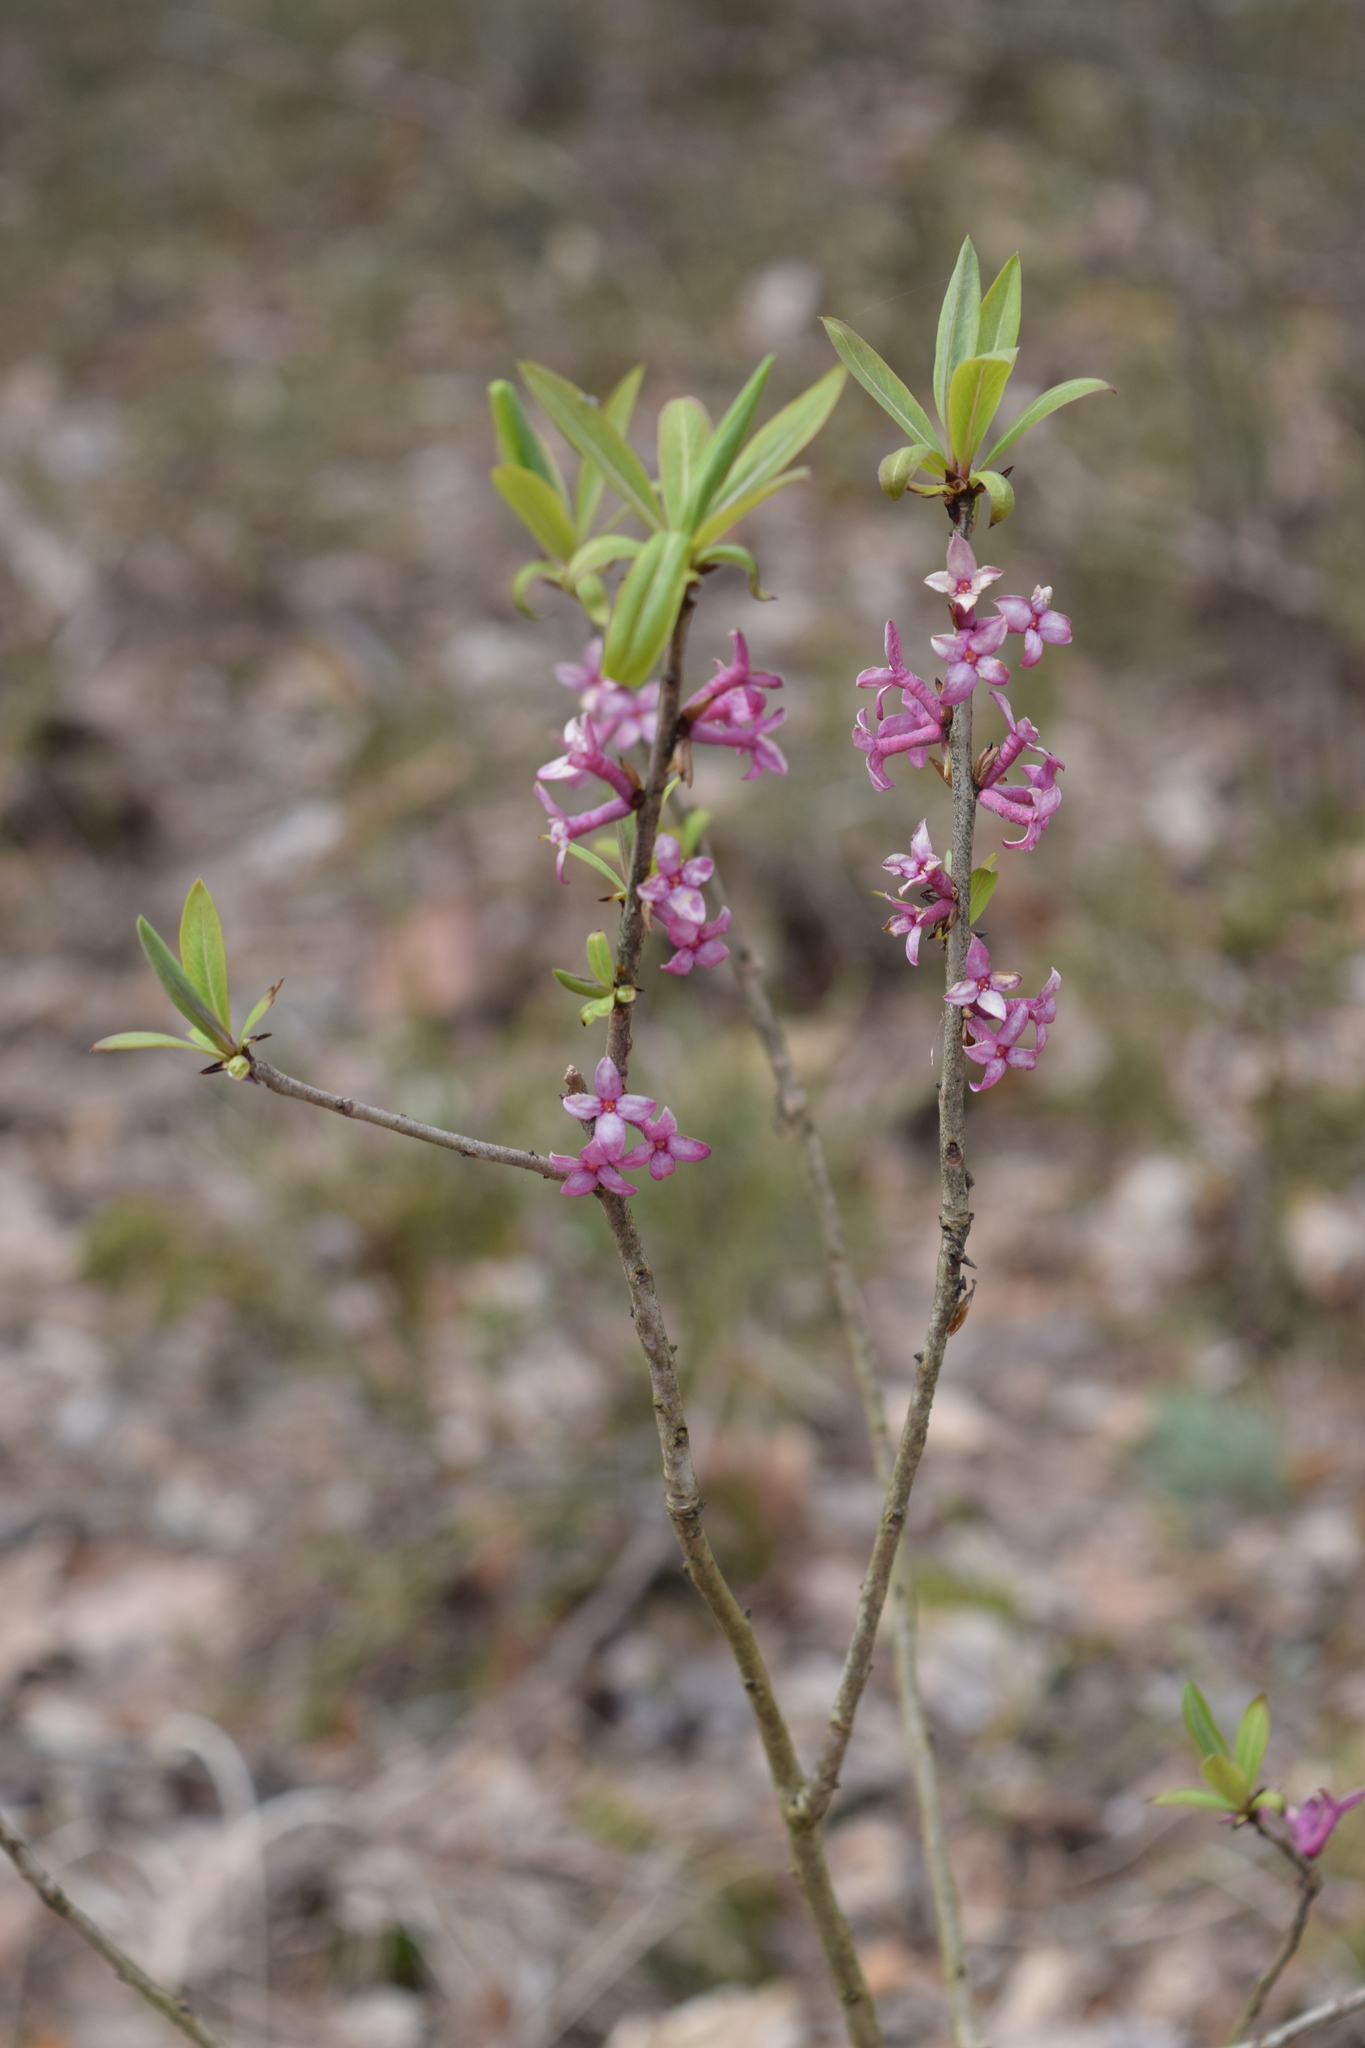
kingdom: Plantae
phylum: Tracheophyta
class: Magnoliopsida
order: Malvales
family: Thymelaeaceae
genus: Daphne
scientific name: Daphne mezereum
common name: Mezereon
